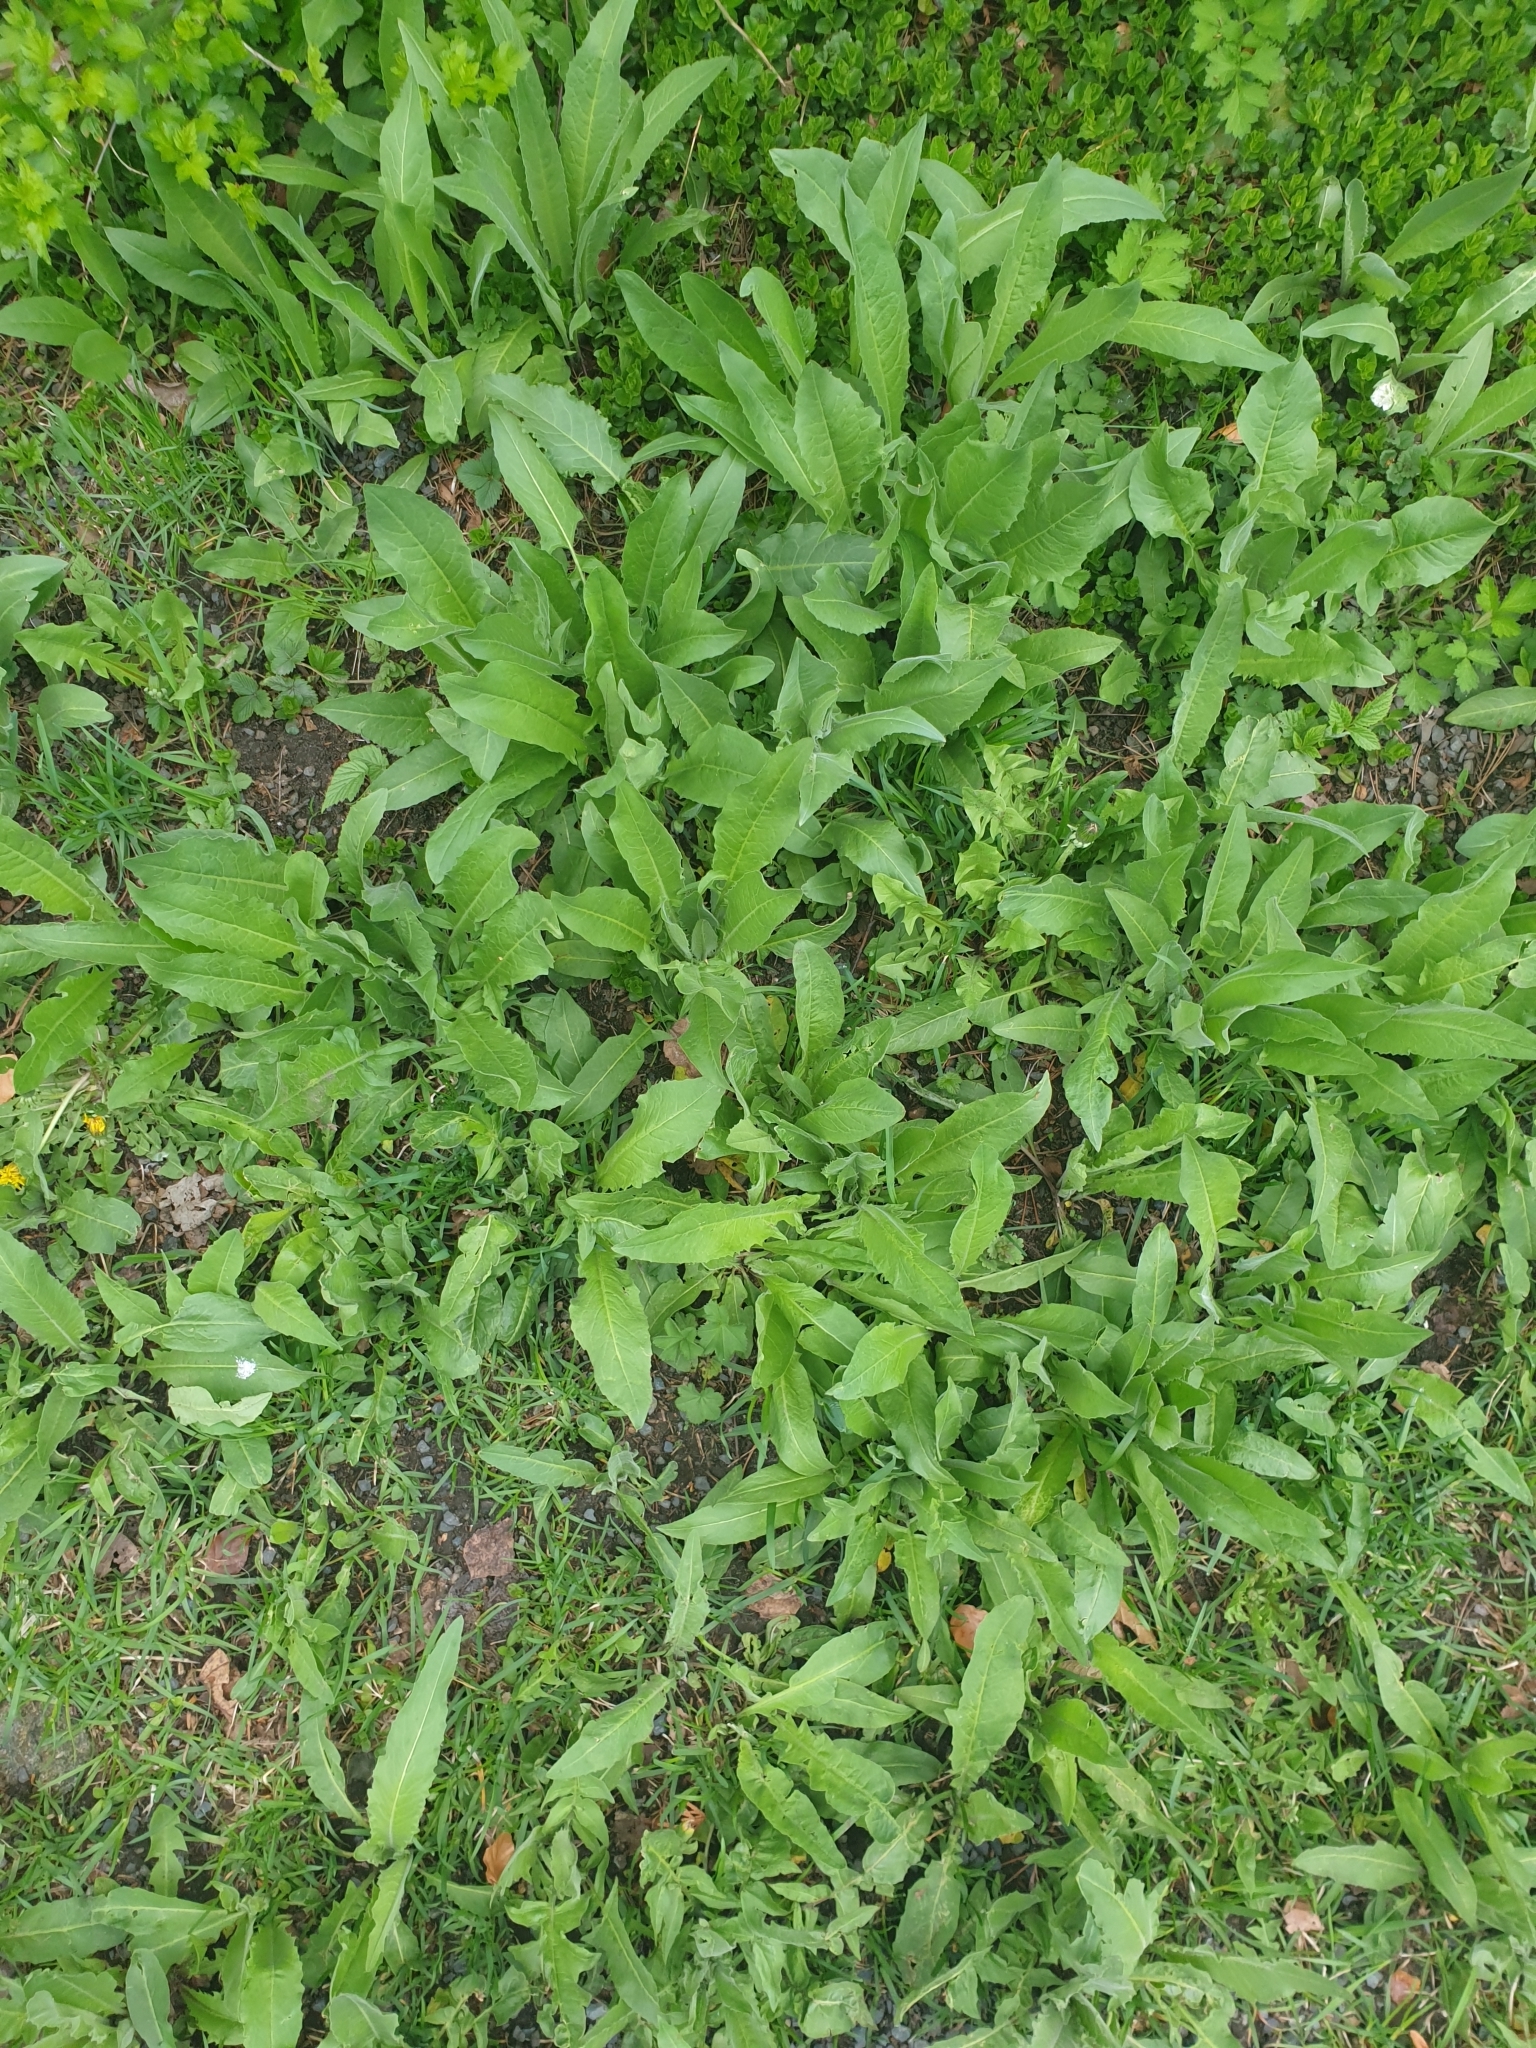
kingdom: Plantae
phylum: Tracheophyta
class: Magnoliopsida
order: Brassicales
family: Brassicaceae
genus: Bunias
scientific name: Bunias orientalis
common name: Warty-cabbage
